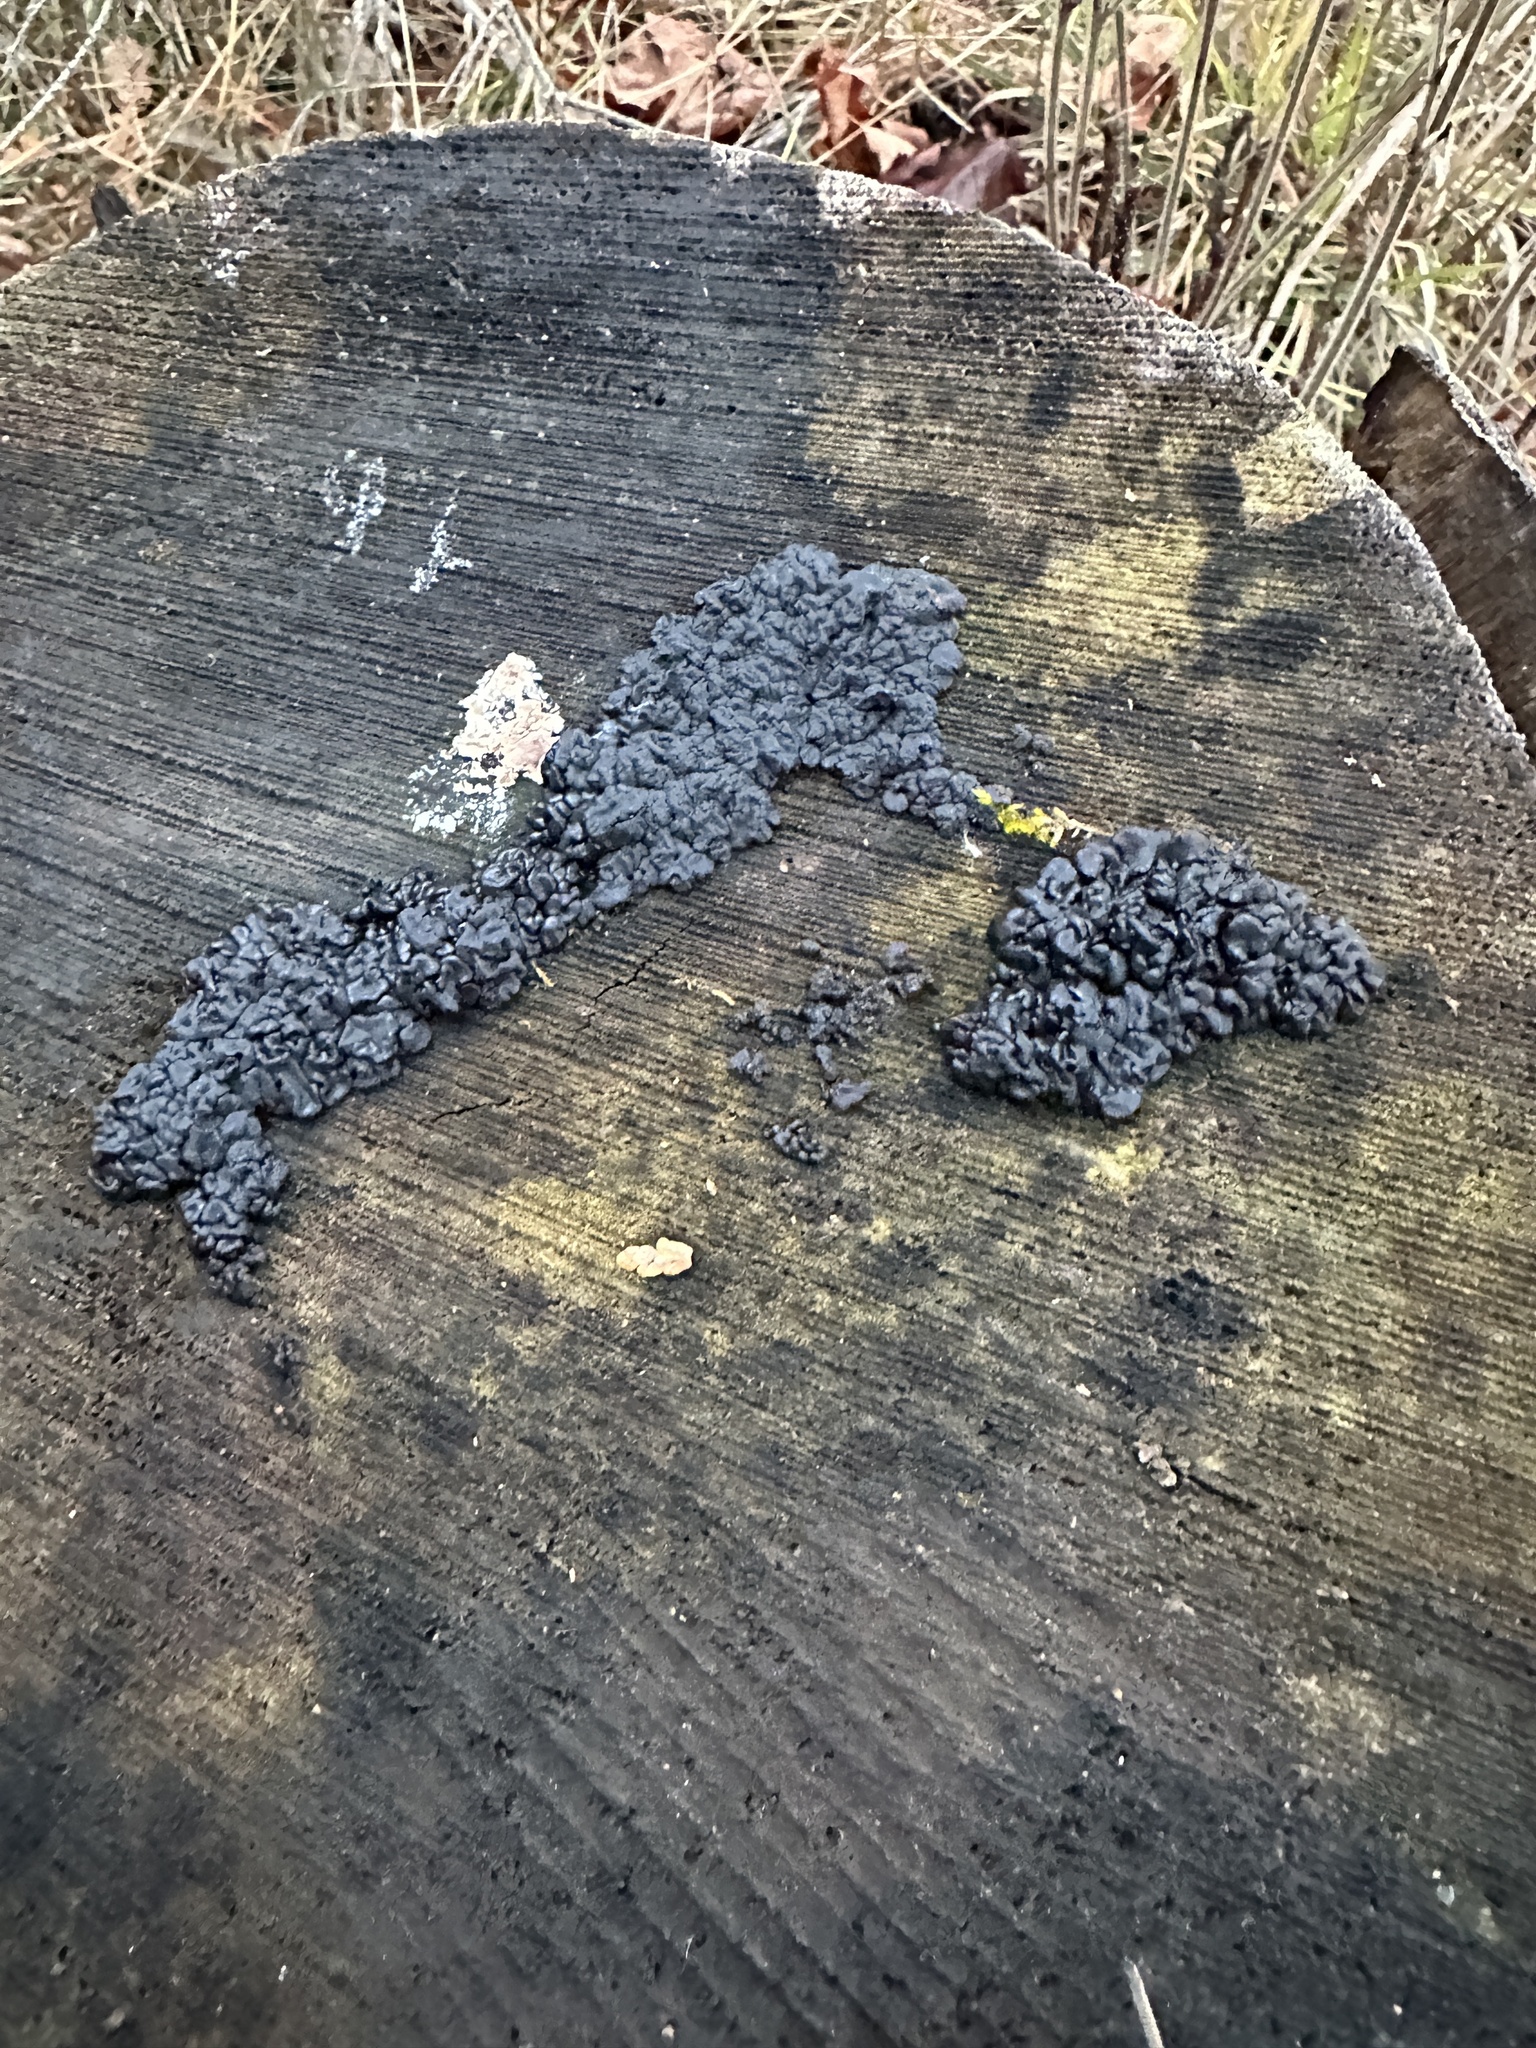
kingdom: Fungi
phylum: Basidiomycota
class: Agaricomycetes
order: Auriculariales
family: Auriculariaceae
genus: Exidia
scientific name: Exidia glandulosa
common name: Witches' butter
